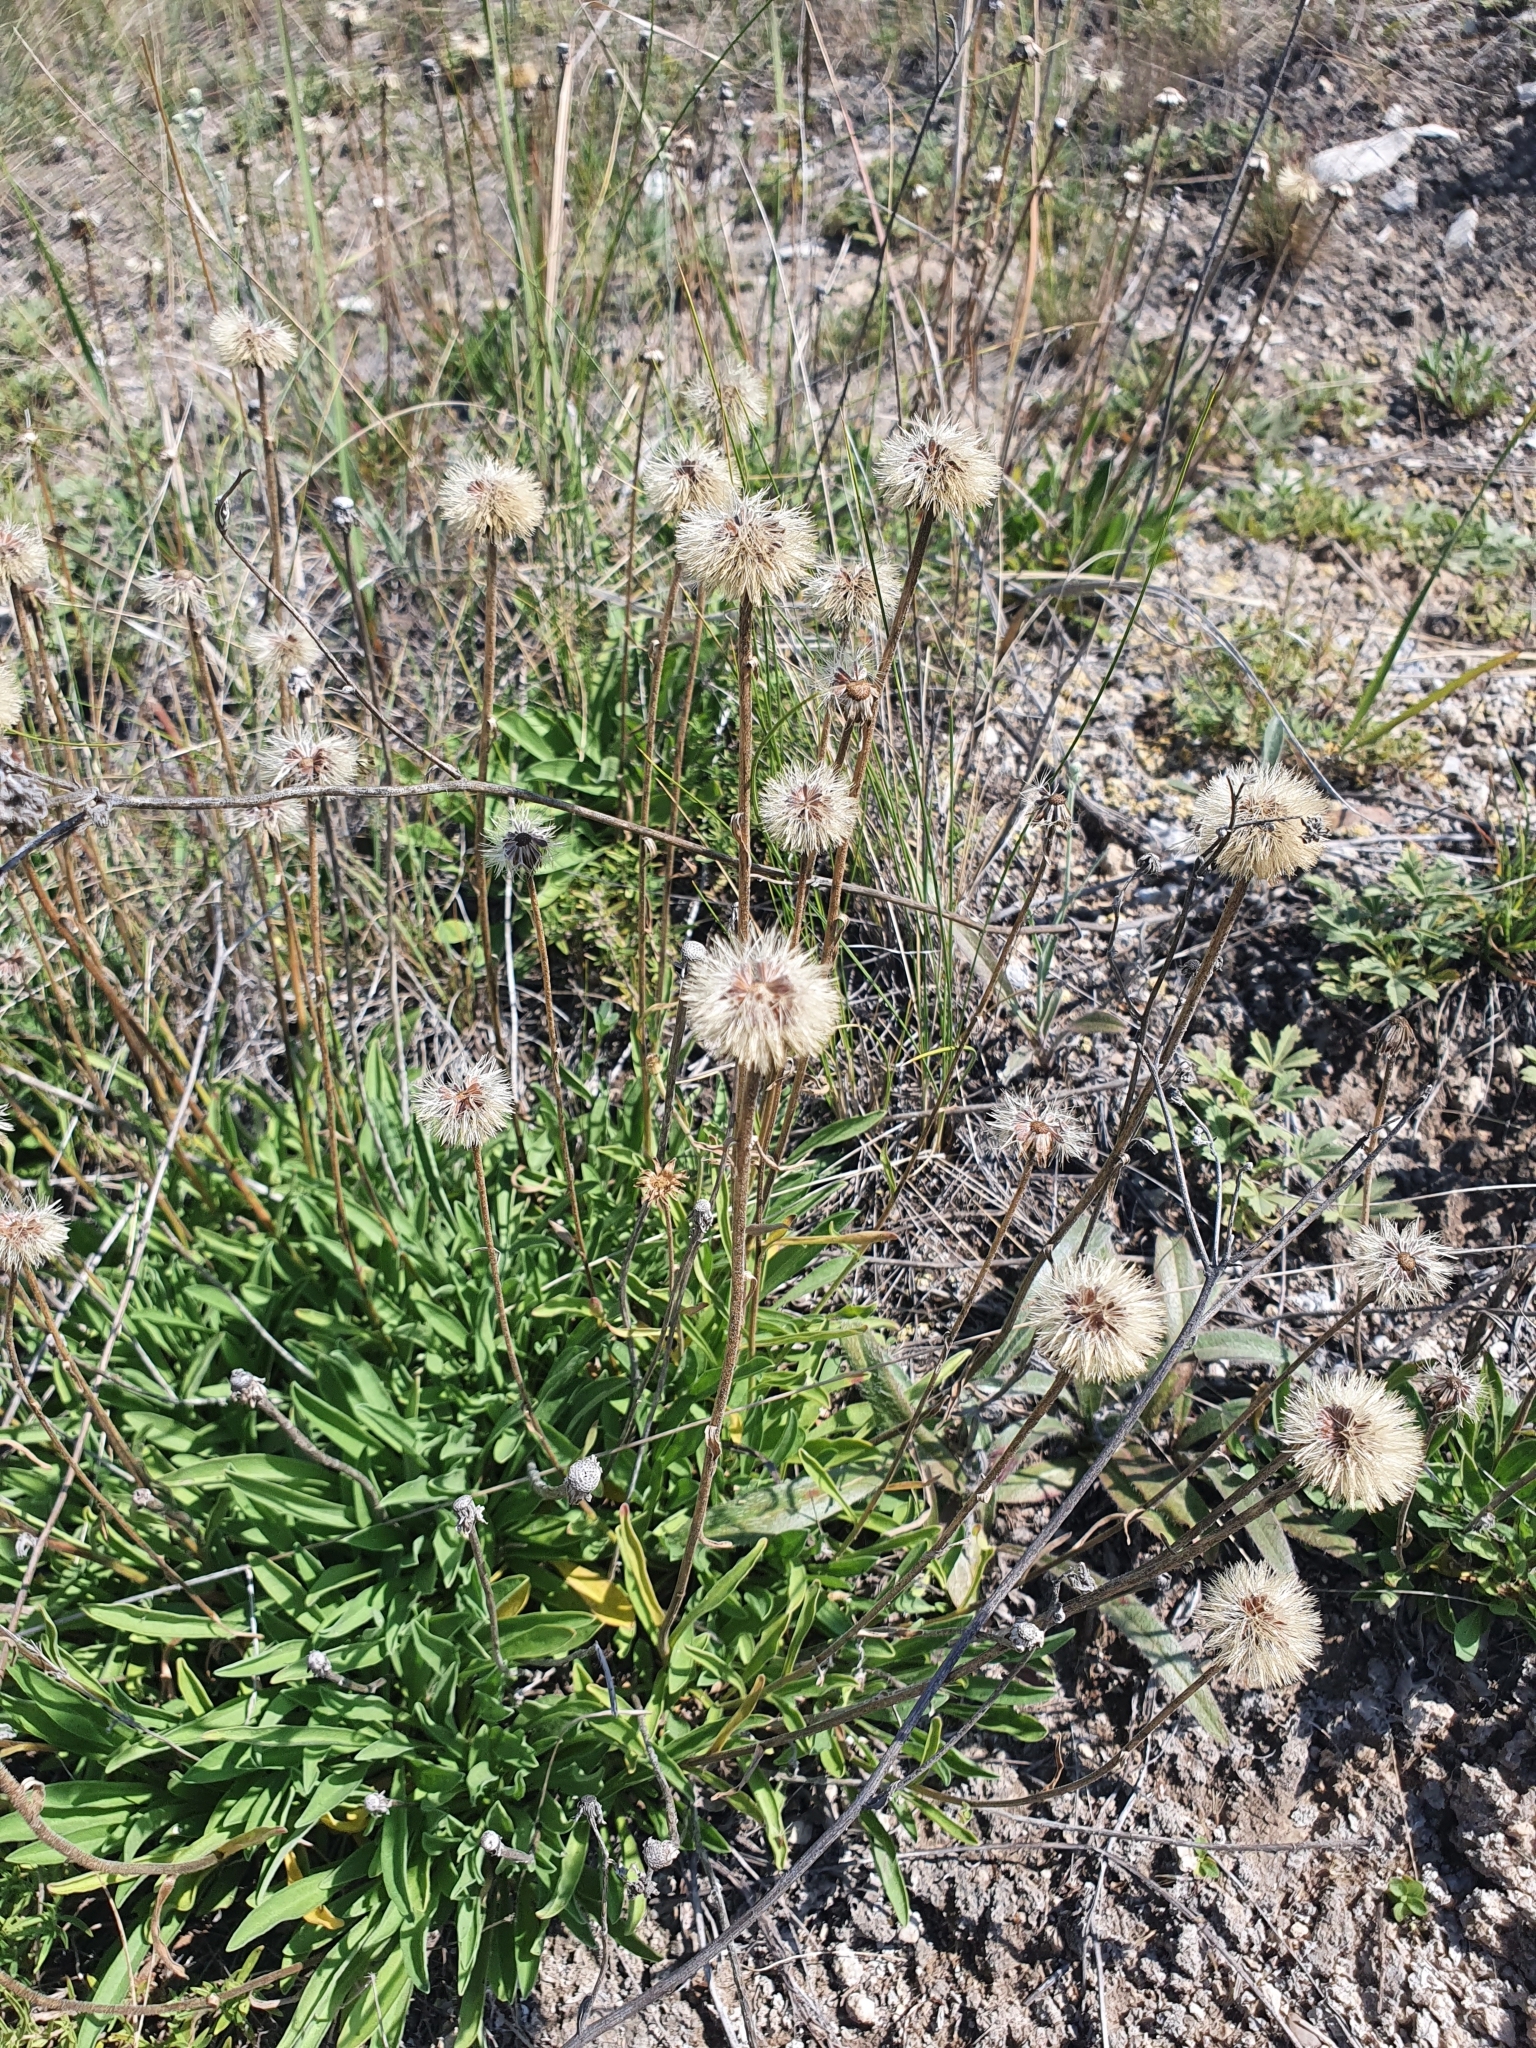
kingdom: Plantae
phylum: Tracheophyta
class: Magnoliopsida
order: Asterales
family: Asteraceae
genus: Aster
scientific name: Aster alpinus
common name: Alpine aster
